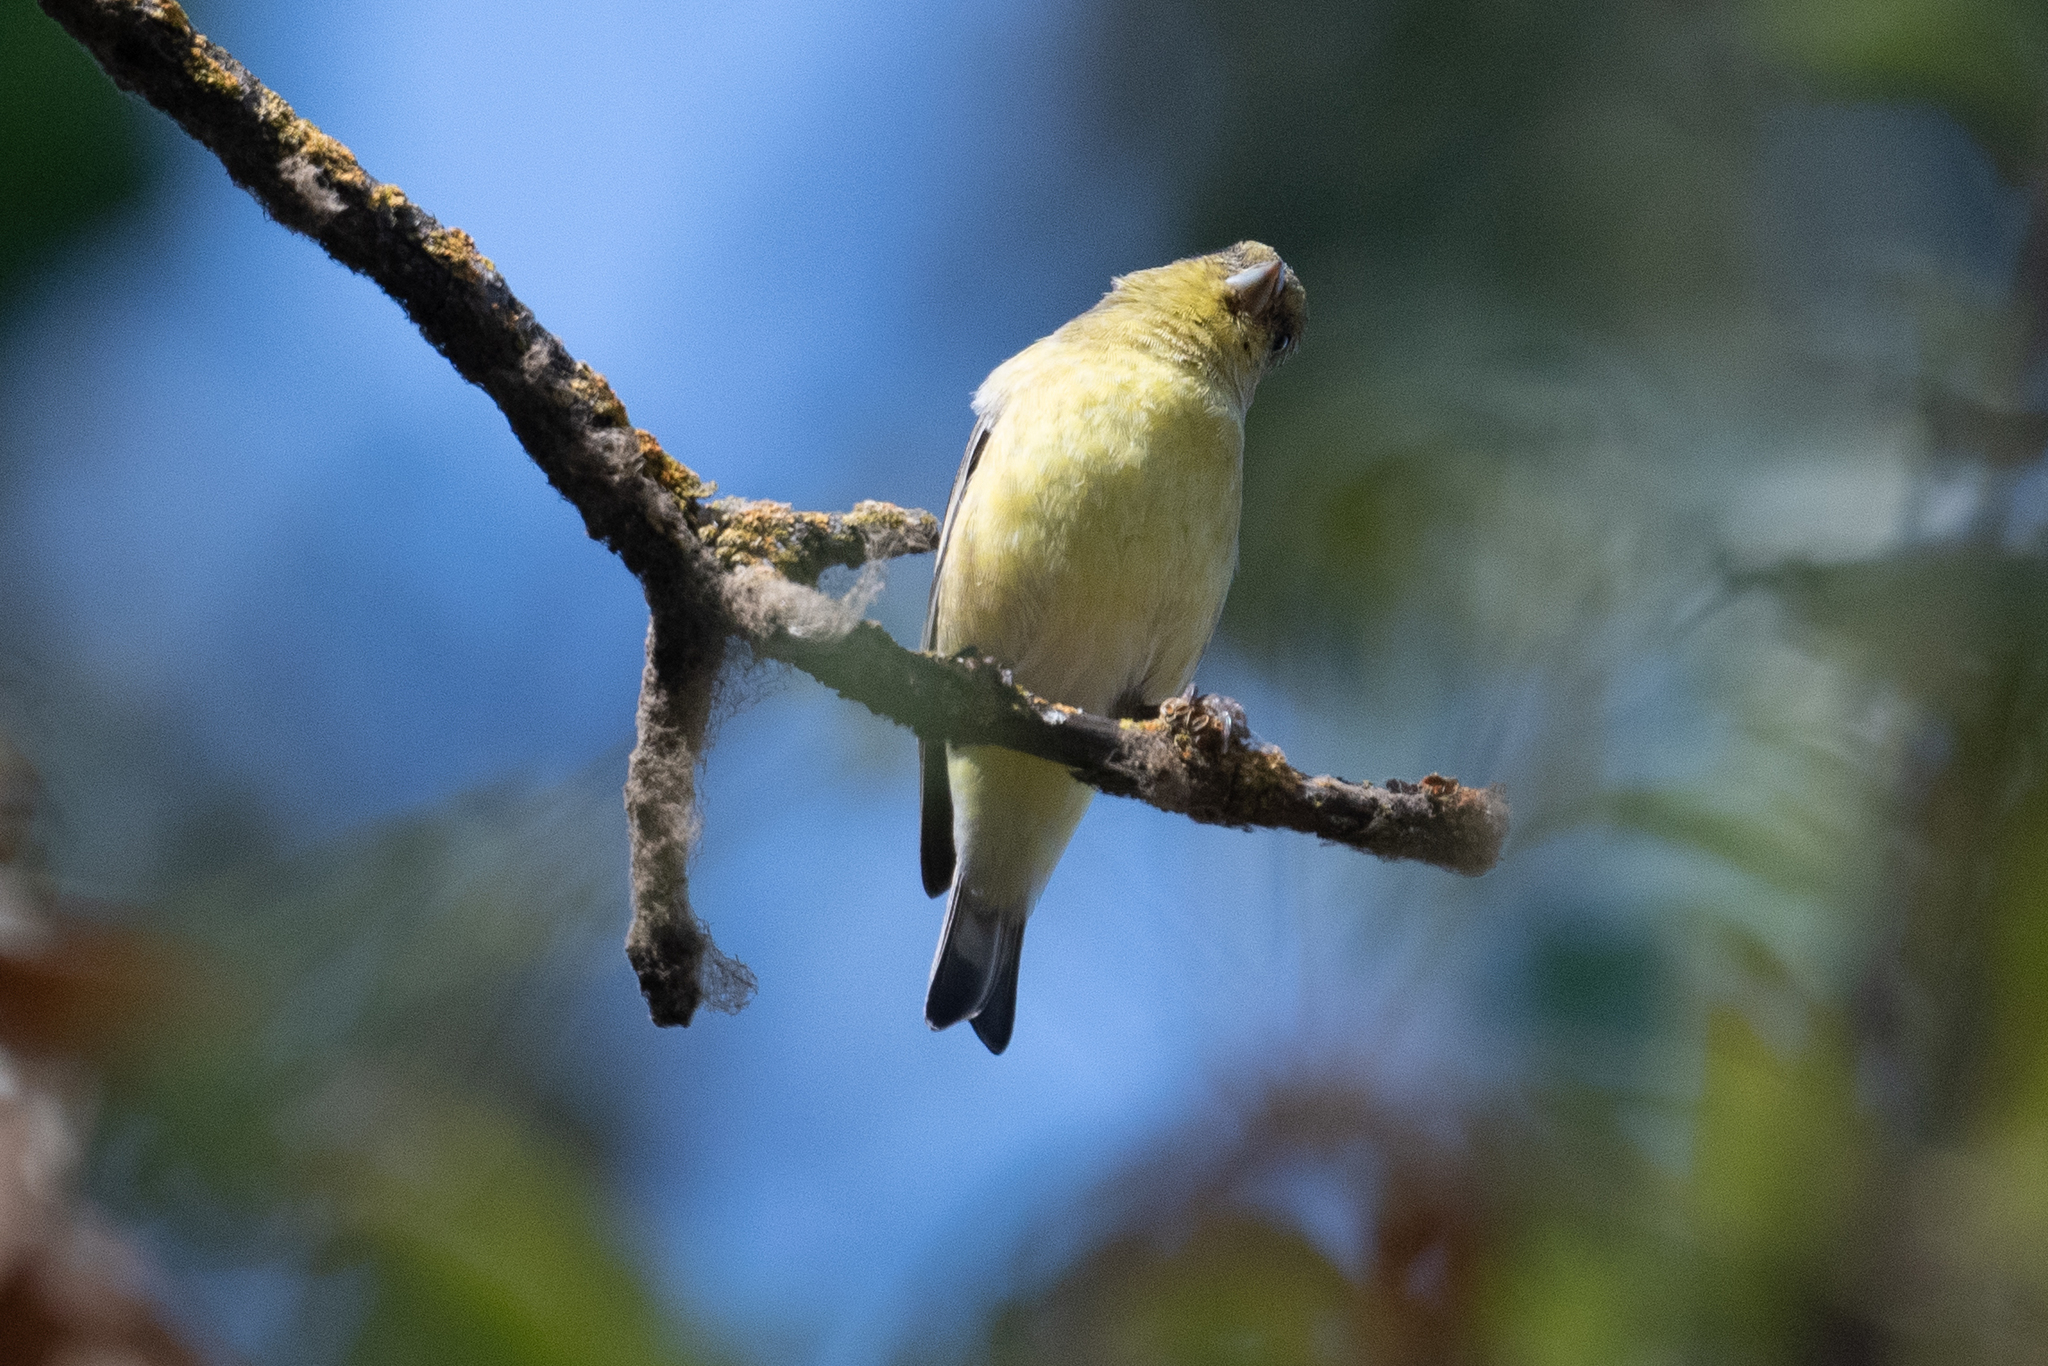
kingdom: Animalia
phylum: Chordata
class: Aves
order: Passeriformes
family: Fringillidae
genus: Spinus
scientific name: Spinus psaltria
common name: Lesser goldfinch
